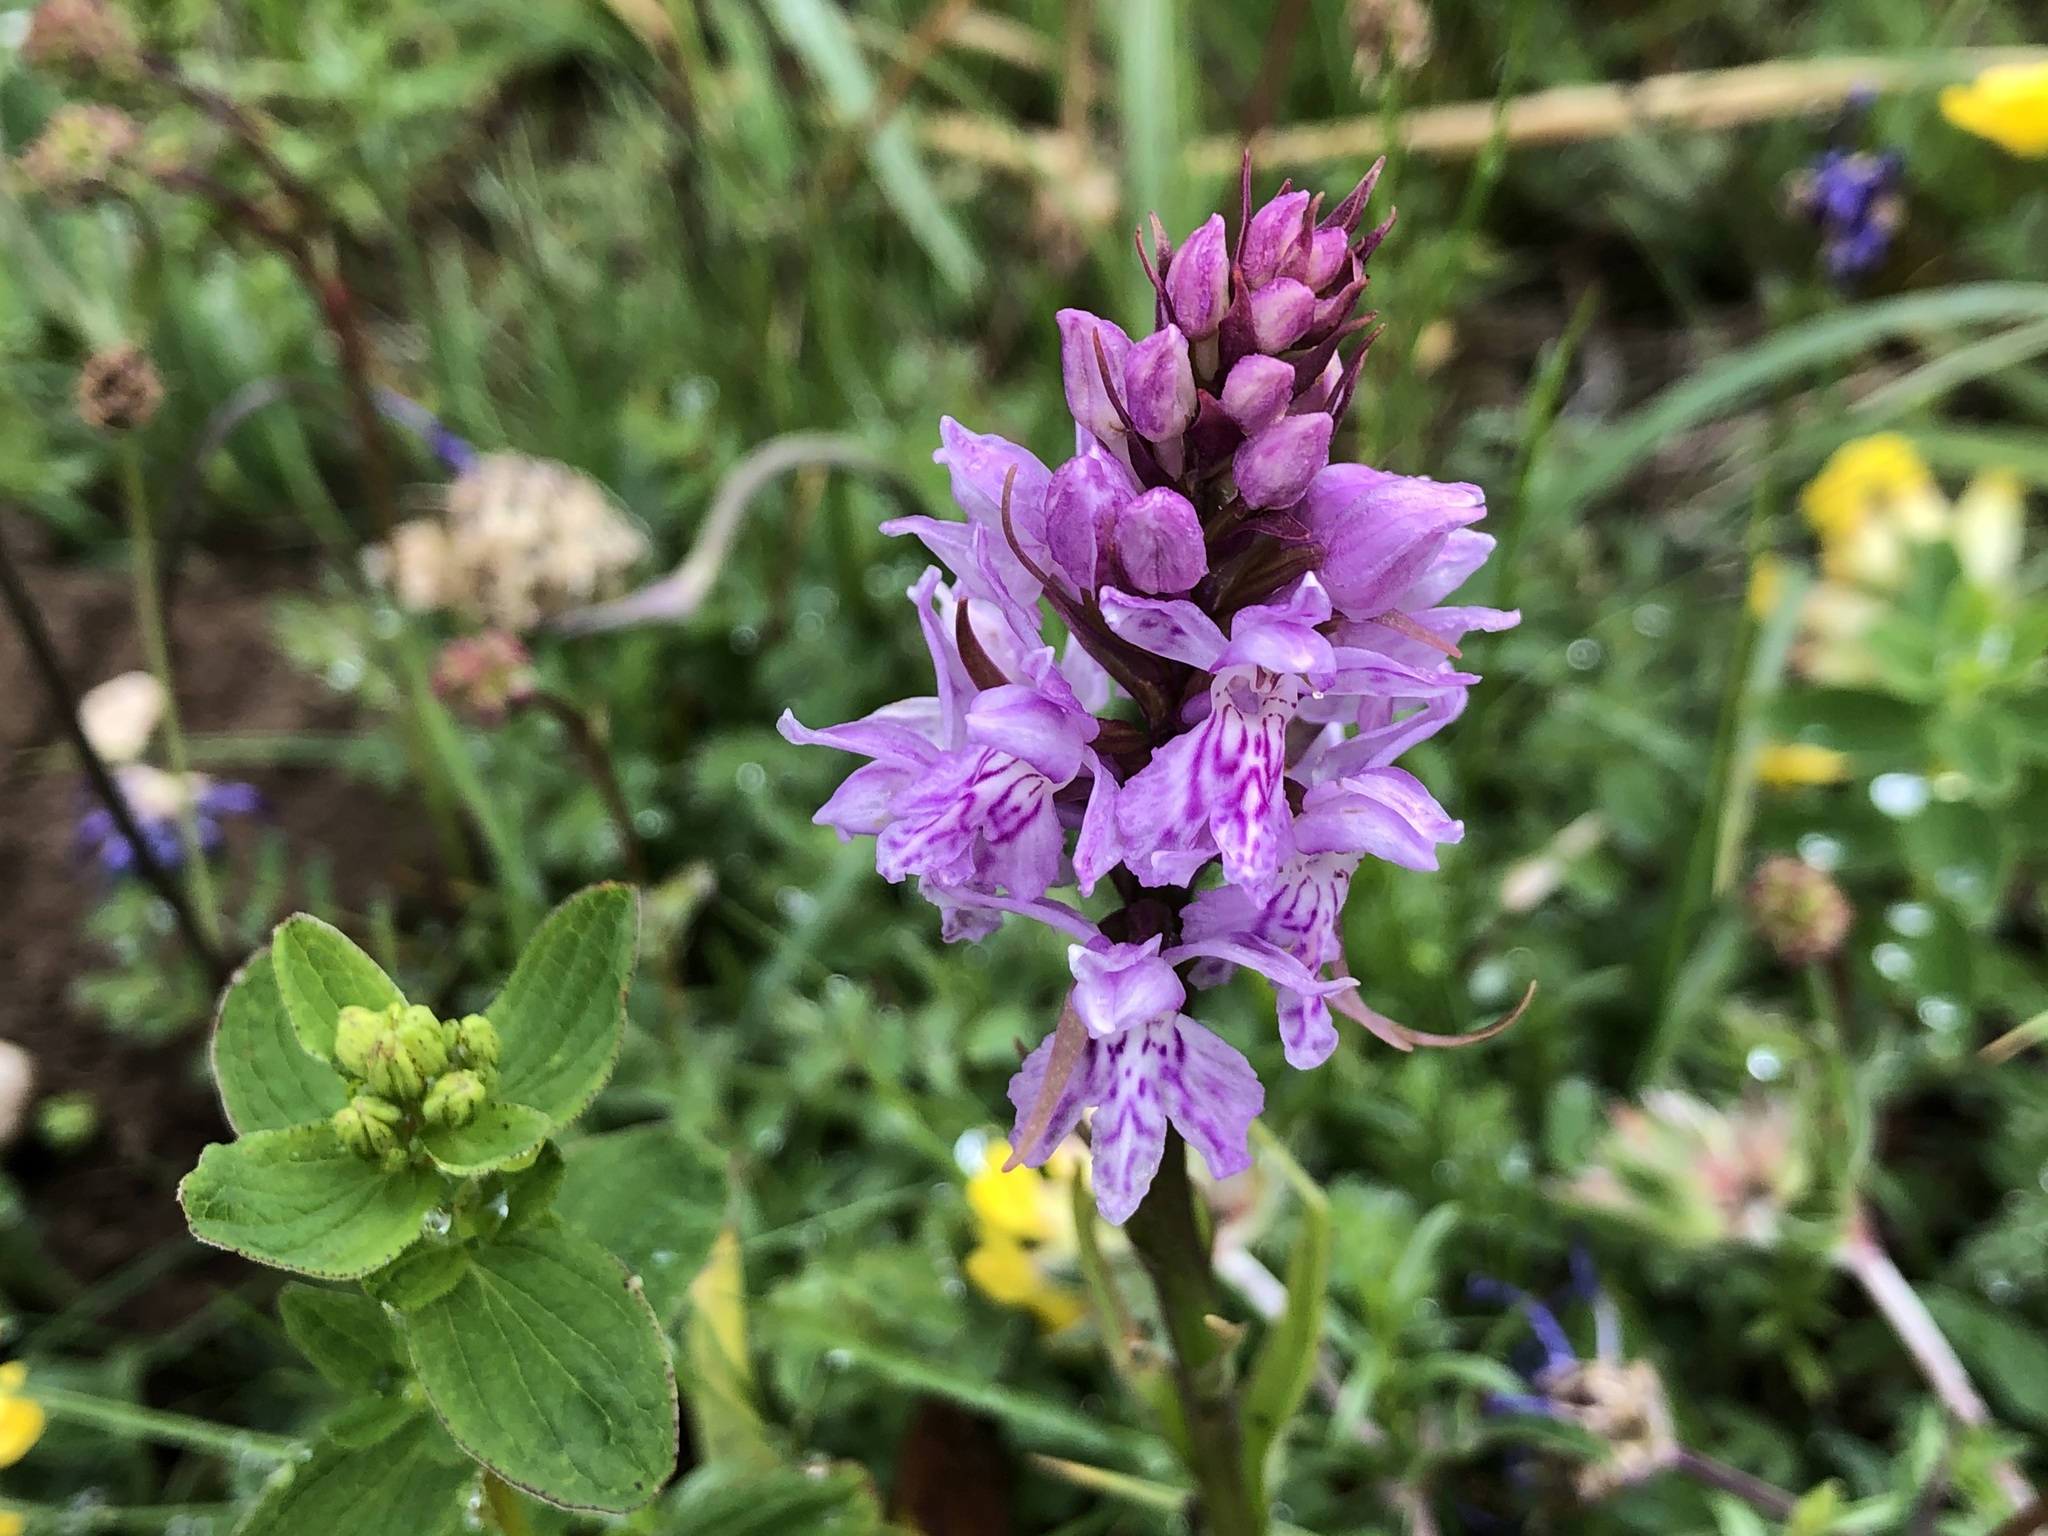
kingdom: Plantae
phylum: Tracheophyta
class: Liliopsida
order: Asparagales
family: Orchidaceae
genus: Dactylorhiza
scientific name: Dactylorhiza maculata
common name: Heath spotted-orchid
